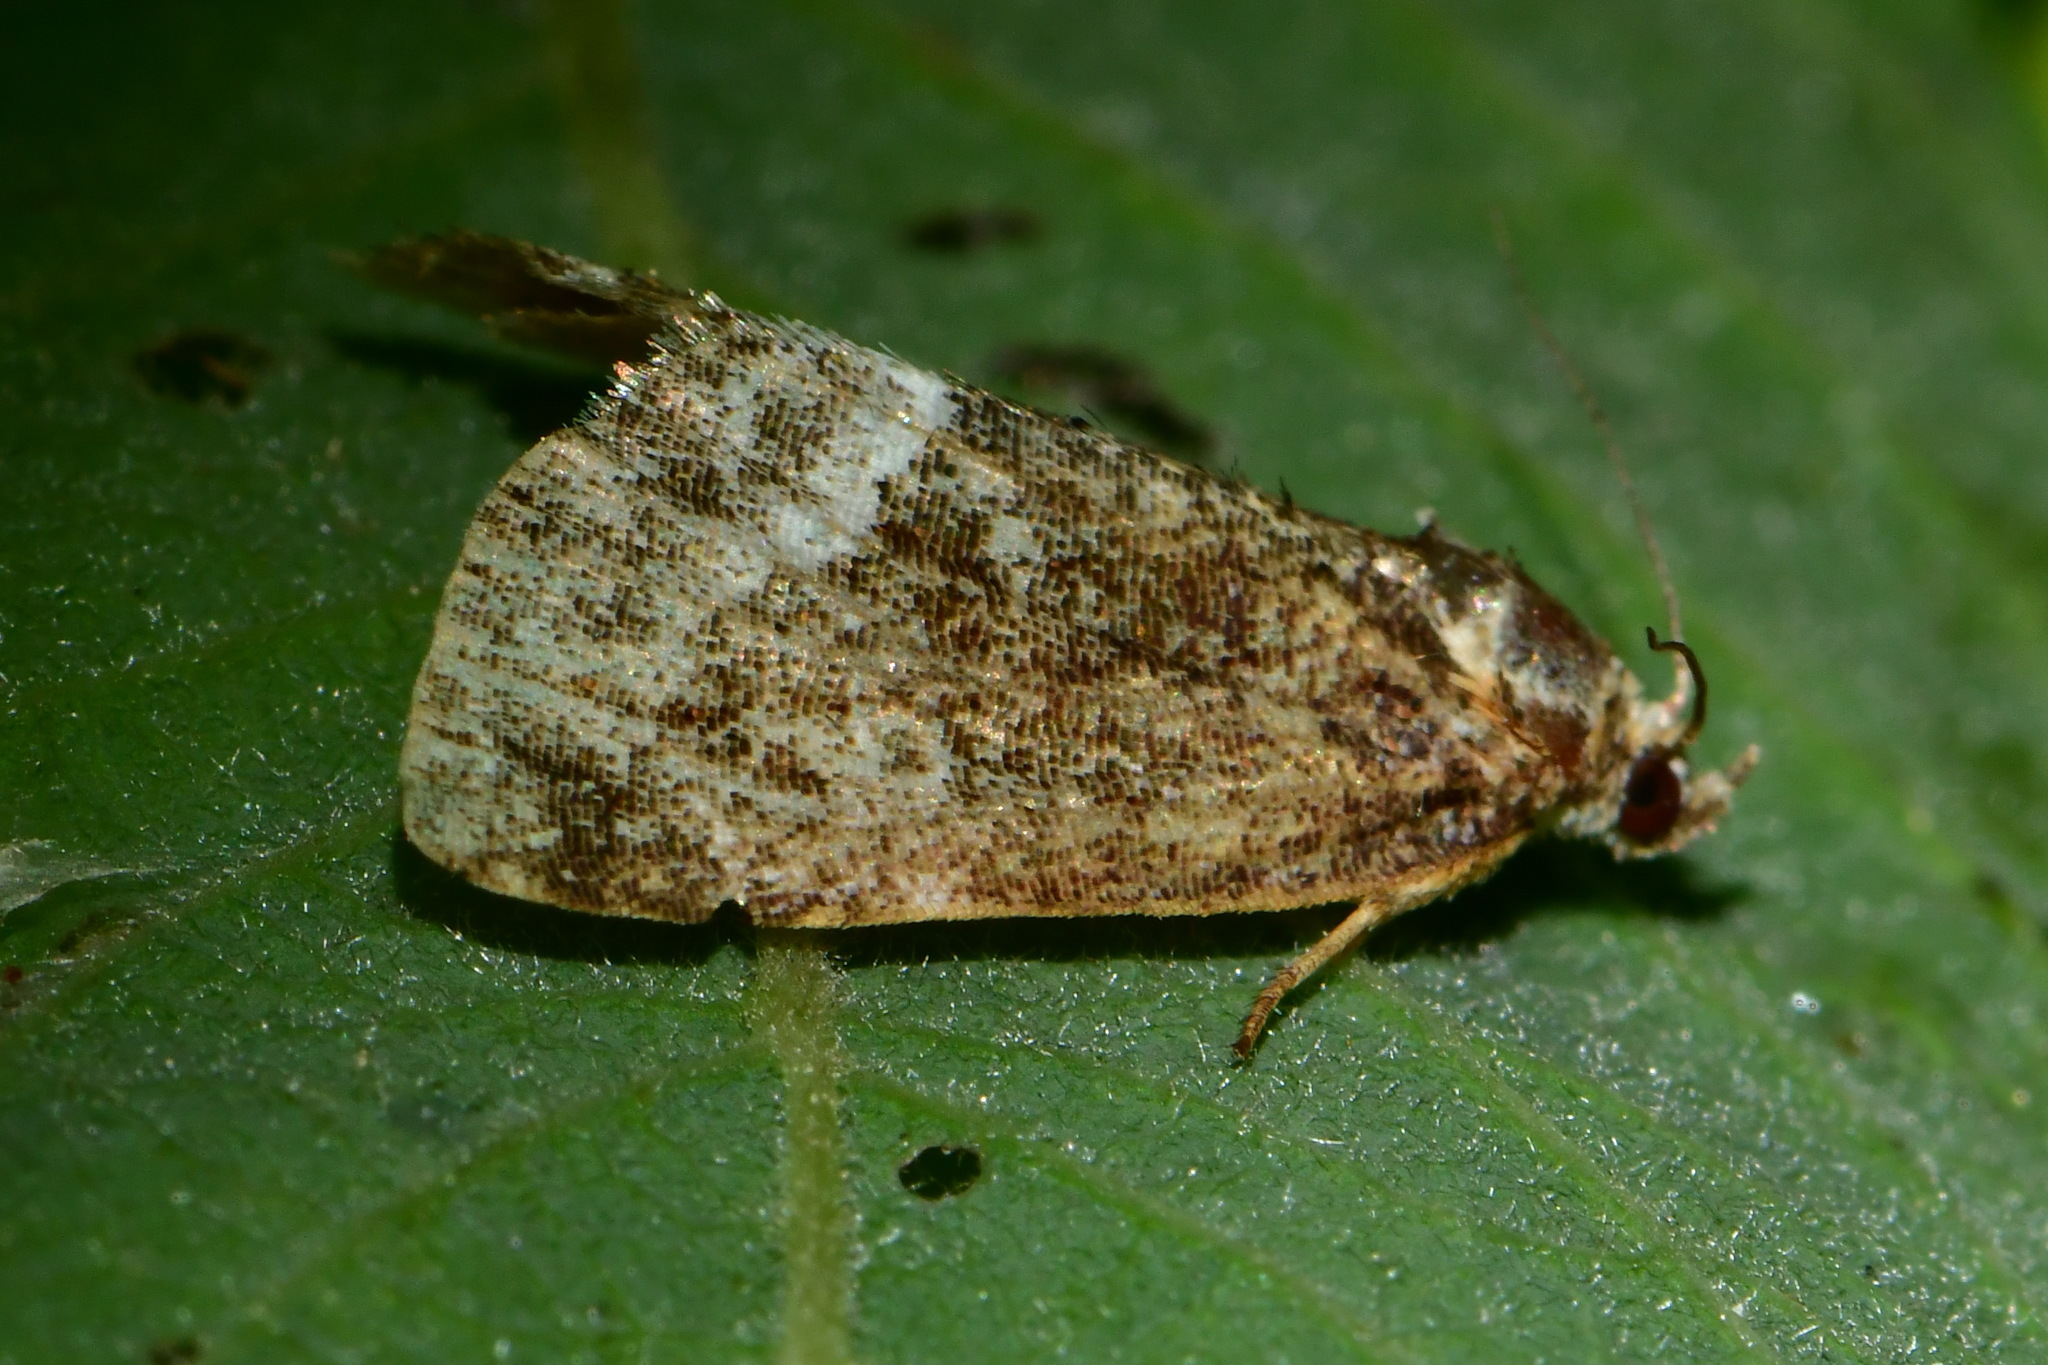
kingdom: Animalia
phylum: Arthropoda
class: Insecta
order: Lepidoptera
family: Noctuidae
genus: Deltote
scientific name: Deltote pygarga
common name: Marbled white spot
